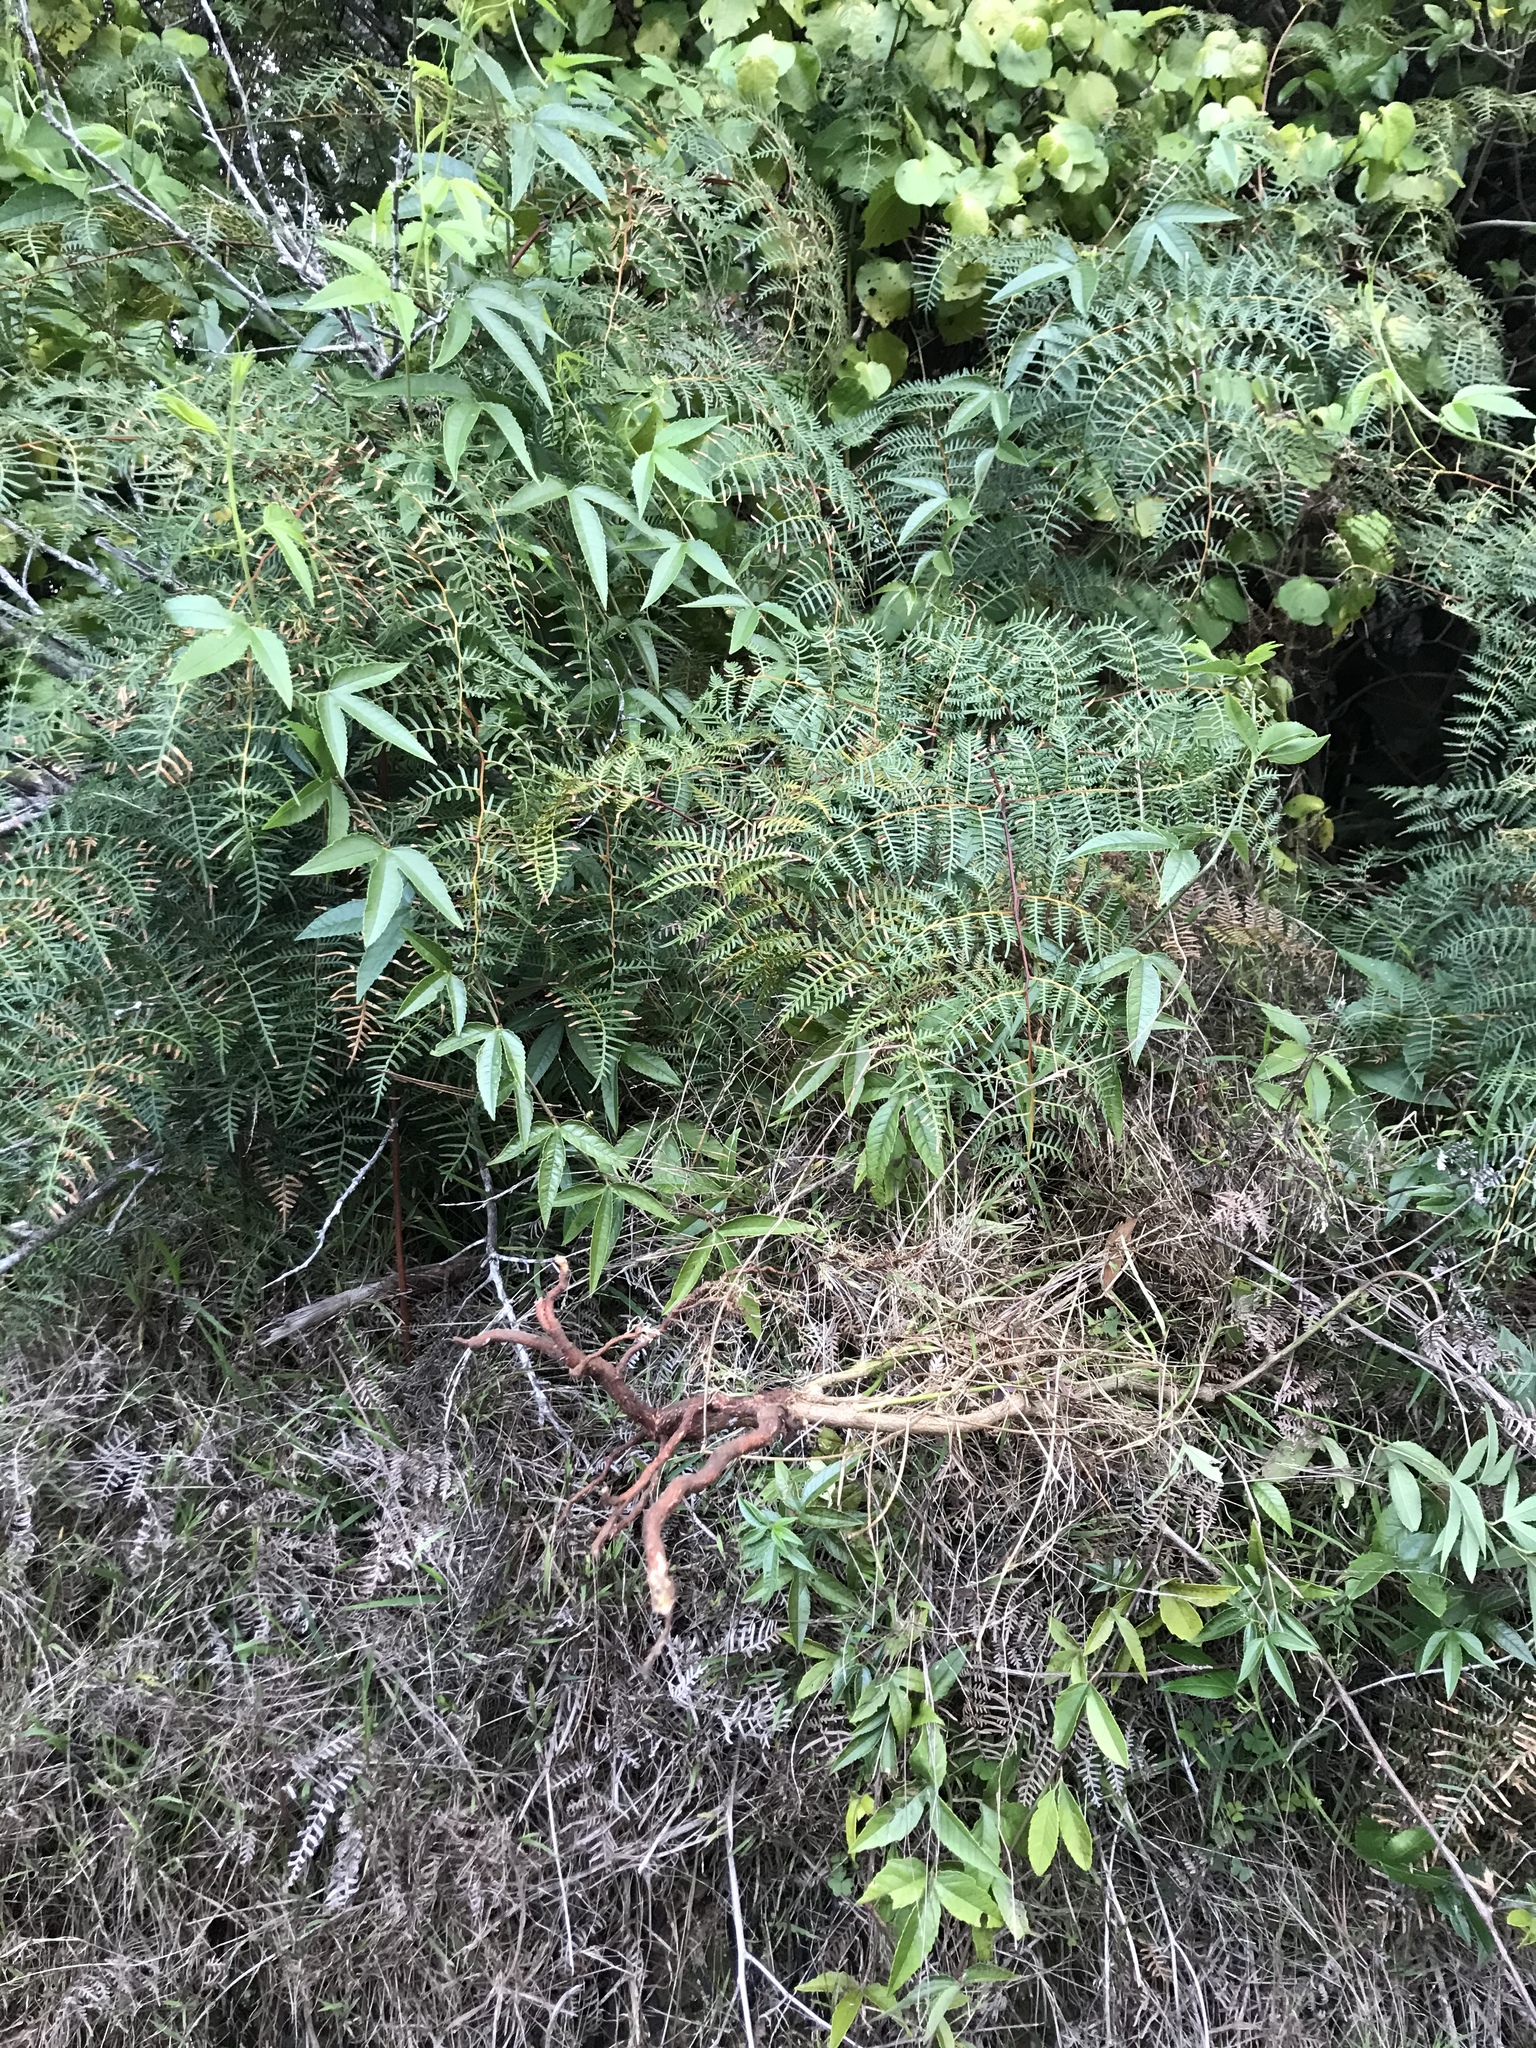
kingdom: Plantae
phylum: Tracheophyta
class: Magnoliopsida
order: Malpighiales
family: Passifloraceae
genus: Passiflora
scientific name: Passiflora tripartita
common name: Banana poka
